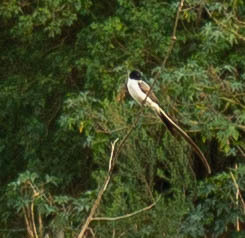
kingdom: Animalia
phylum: Chordata
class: Aves
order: Passeriformes
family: Tyrannidae
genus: Tyrannus
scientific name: Tyrannus savana
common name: Fork-tailed flycatcher
